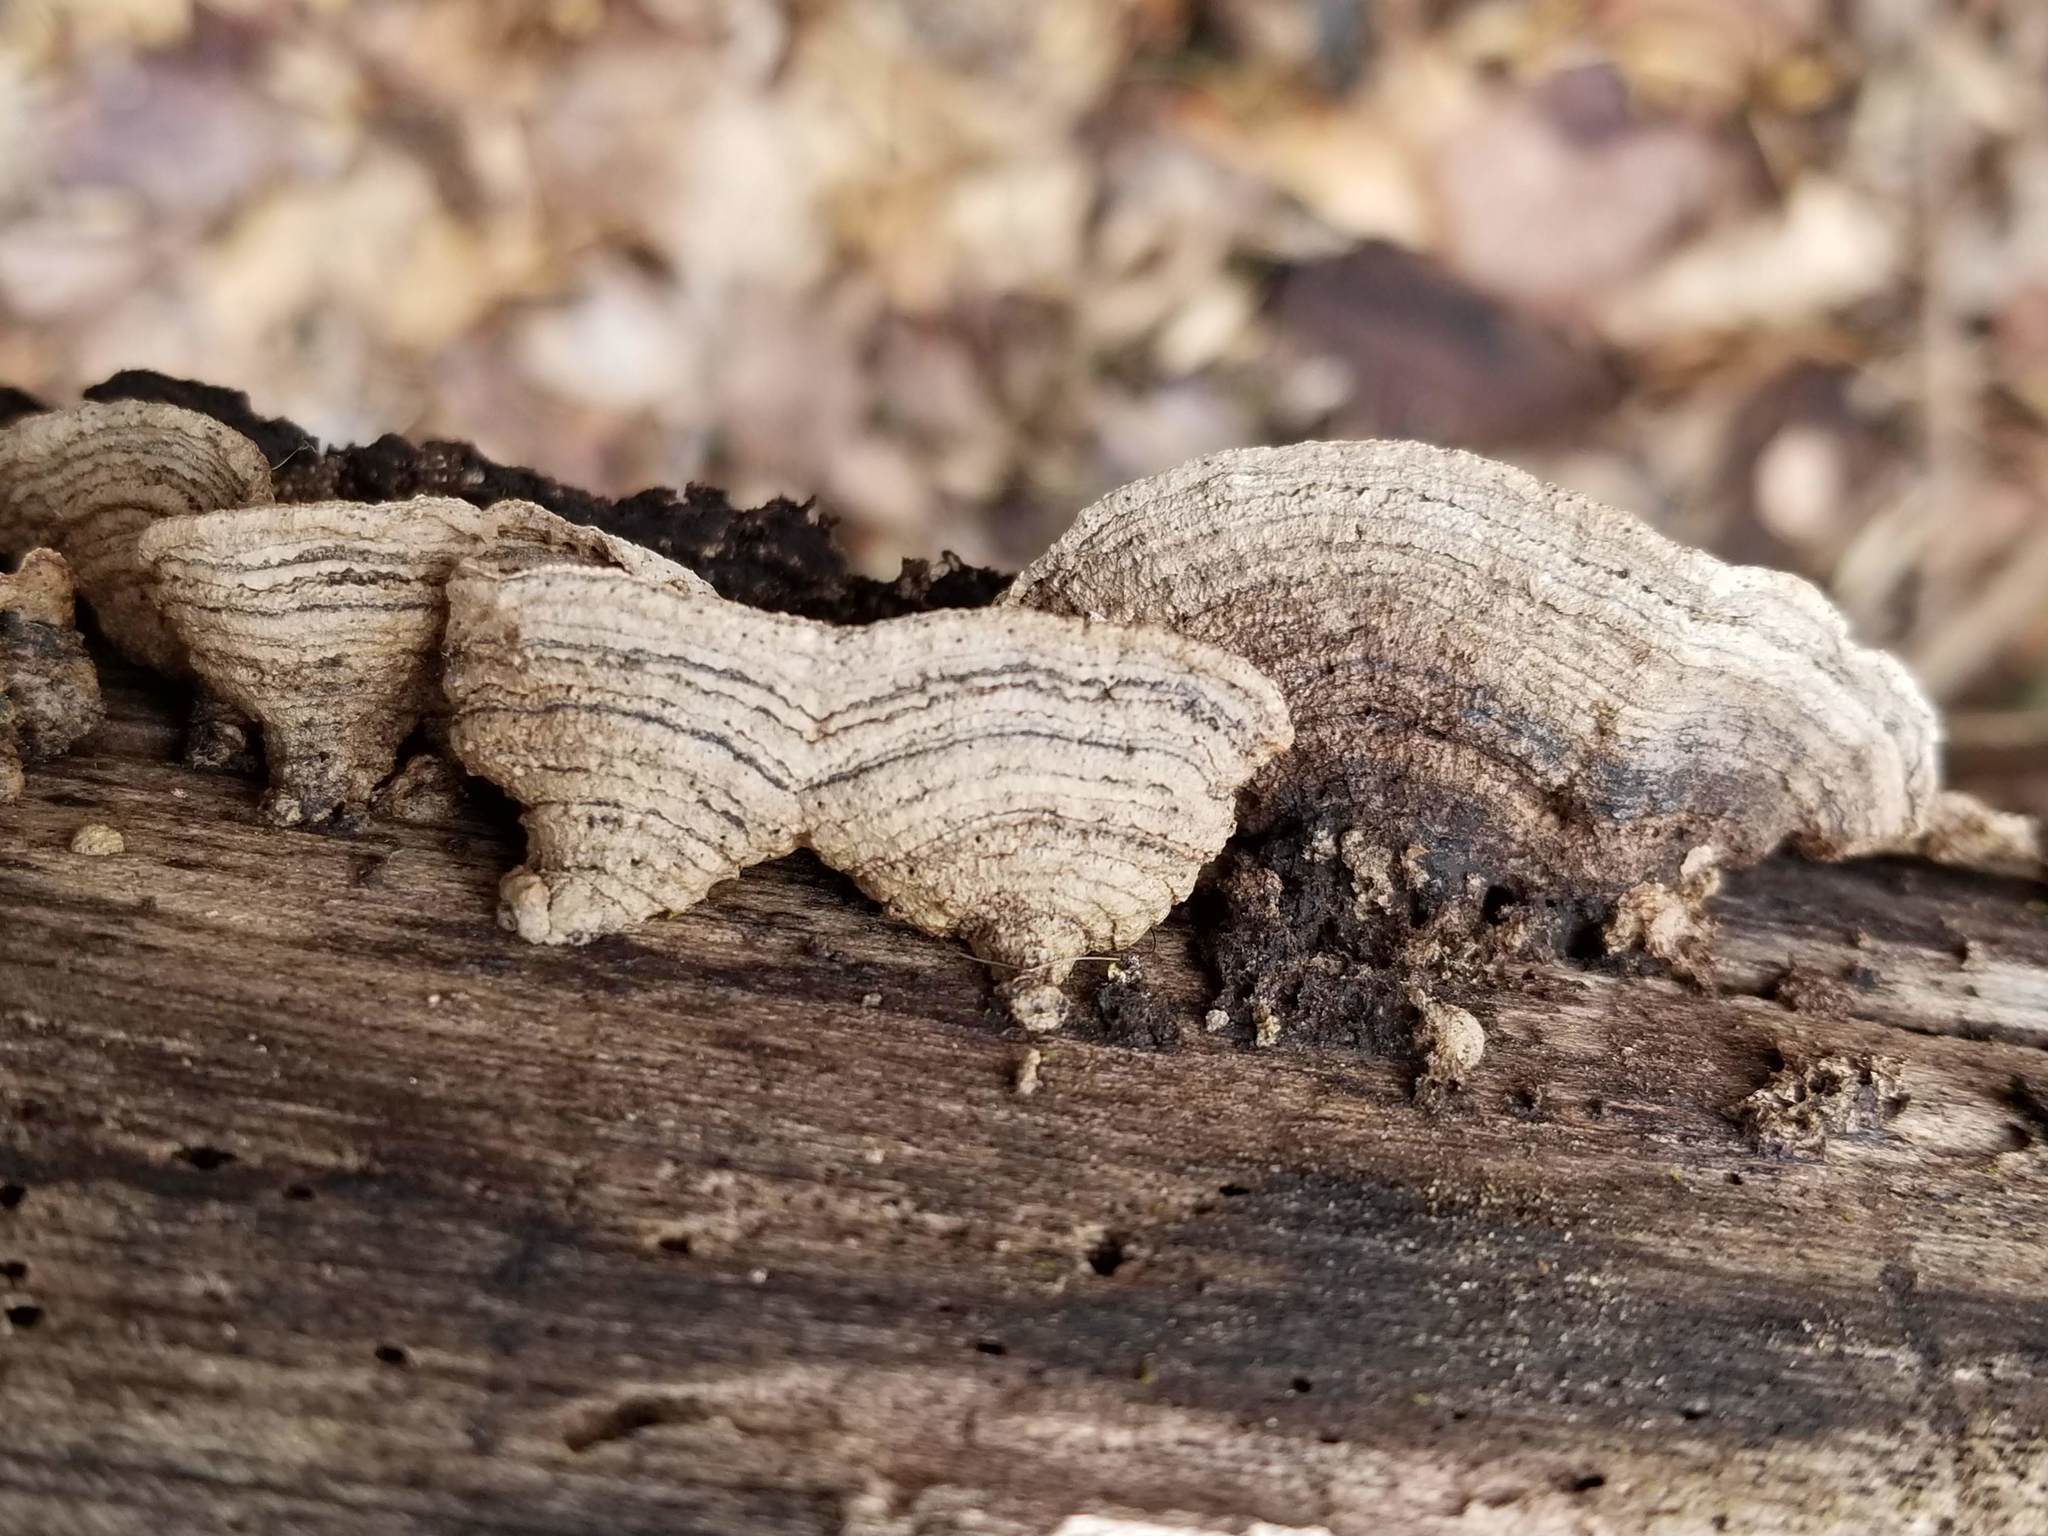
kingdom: Fungi
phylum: Basidiomycota
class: Agaricomycetes
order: Polyporales
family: Polyporaceae
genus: Dentocorticium
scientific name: Dentocorticium portoricense
